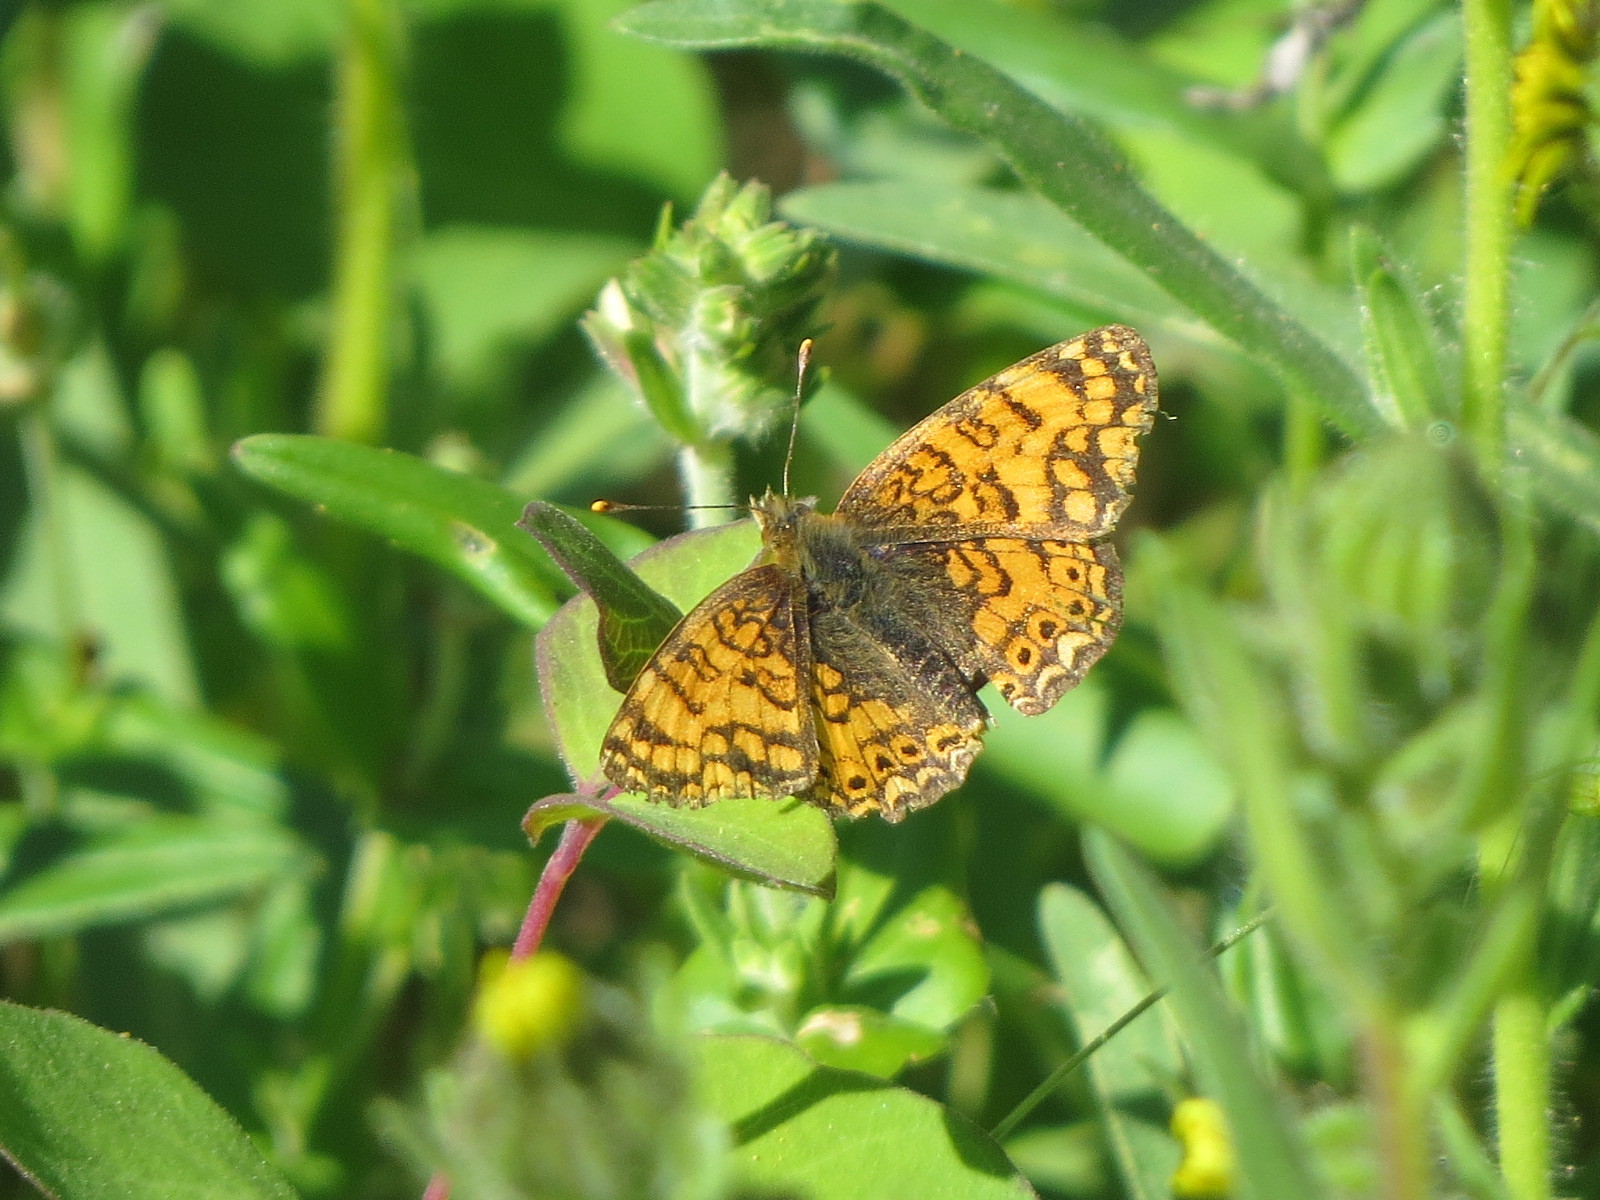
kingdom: Animalia
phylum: Arthropoda
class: Insecta
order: Lepidoptera
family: Nymphalidae
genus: Eresia
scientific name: Eresia aveyrona
